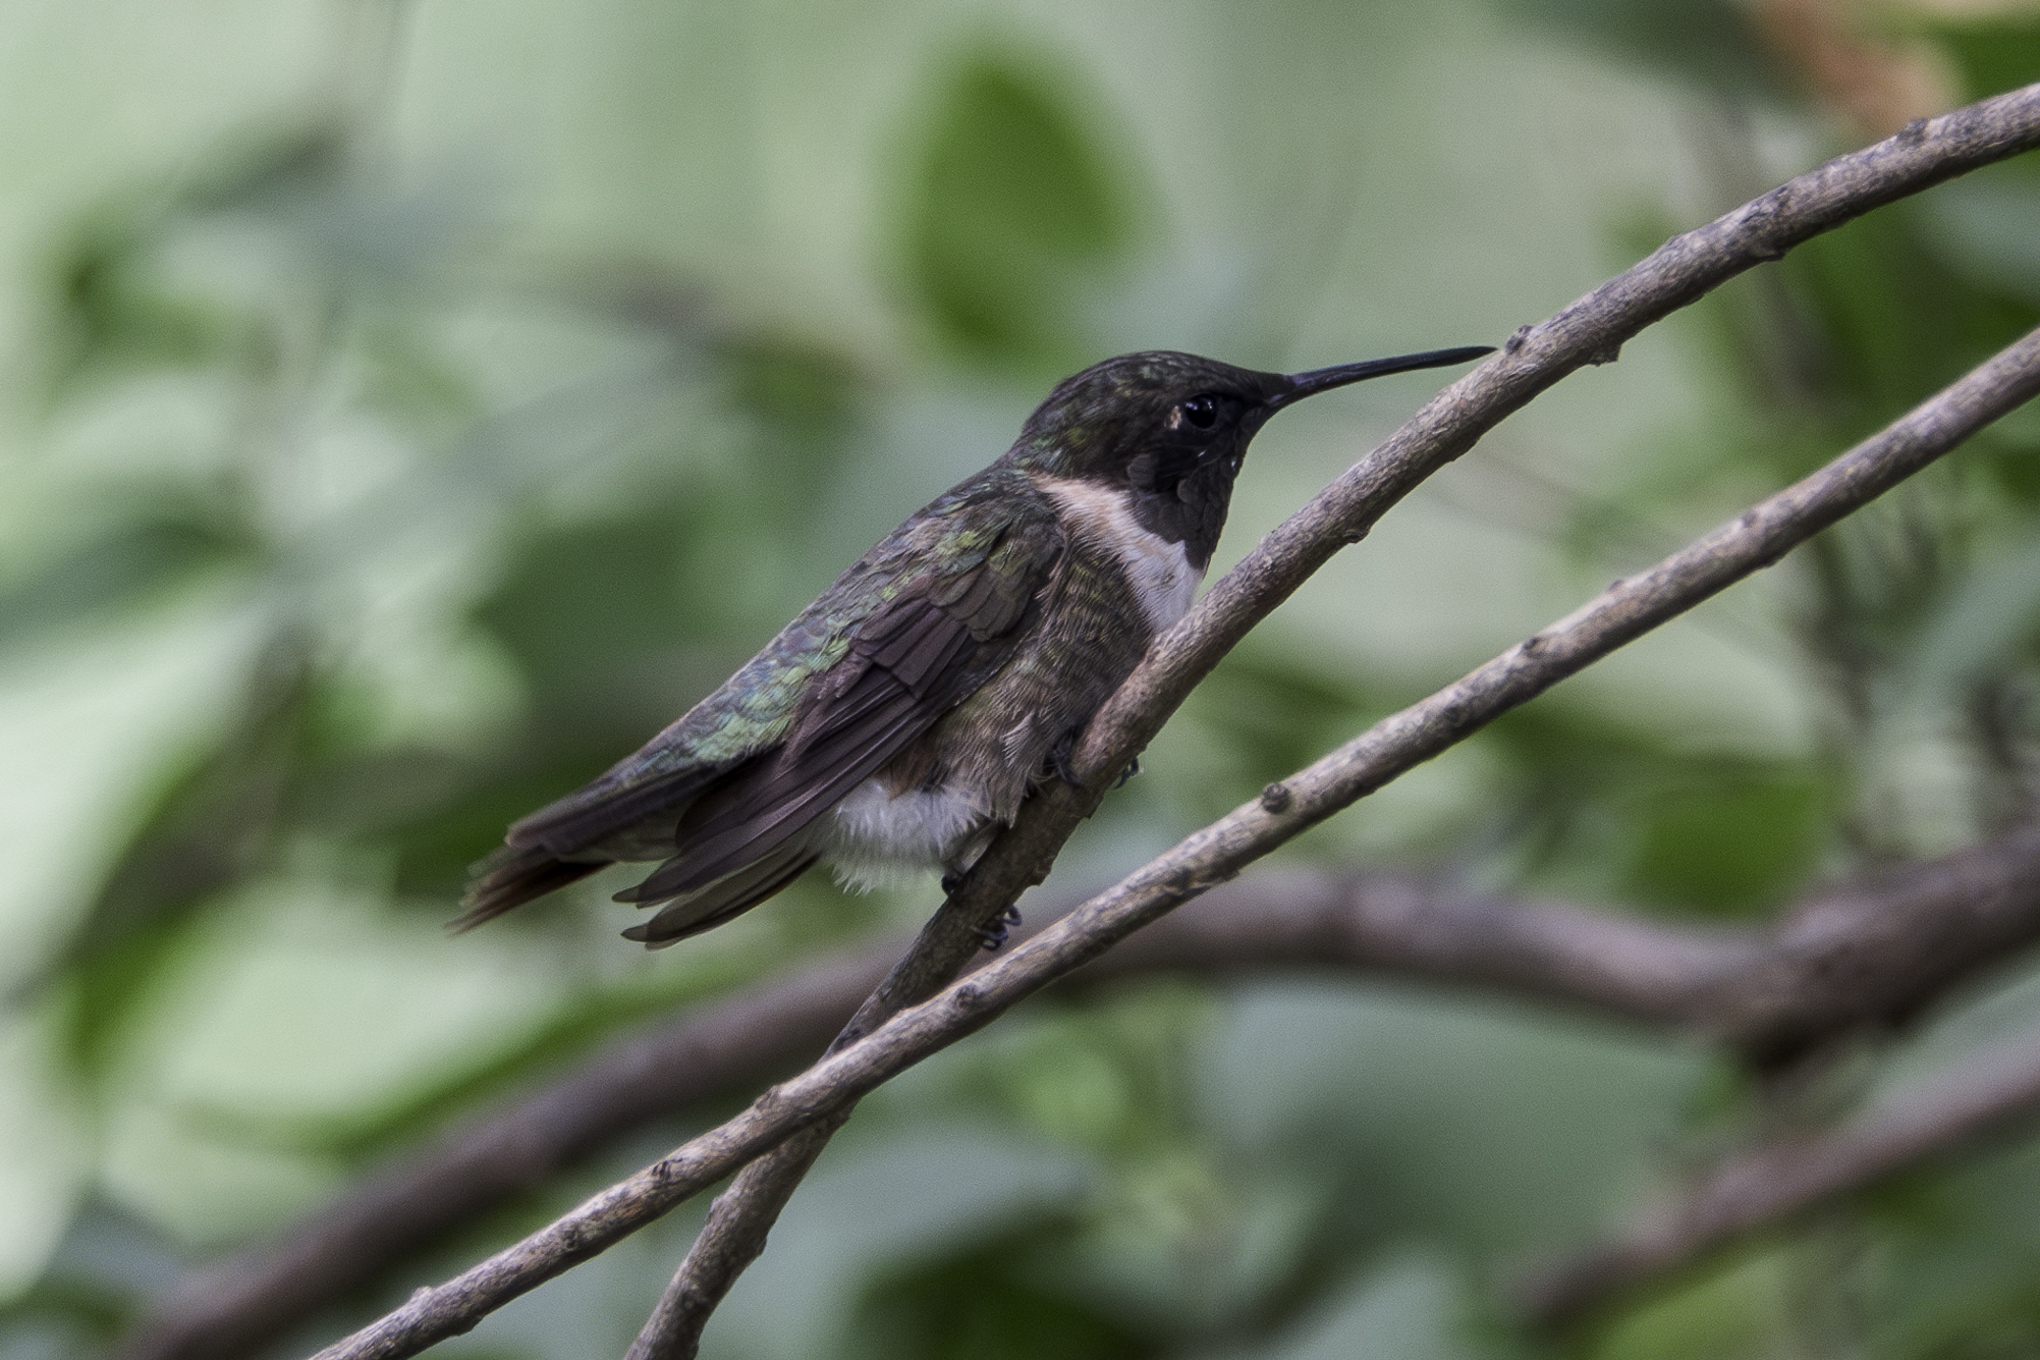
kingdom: Animalia
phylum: Chordata
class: Aves
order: Apodiformes
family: Trochilidae
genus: Archilochus
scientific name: Archilochus colubris
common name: Ruby-throated hummingbird
